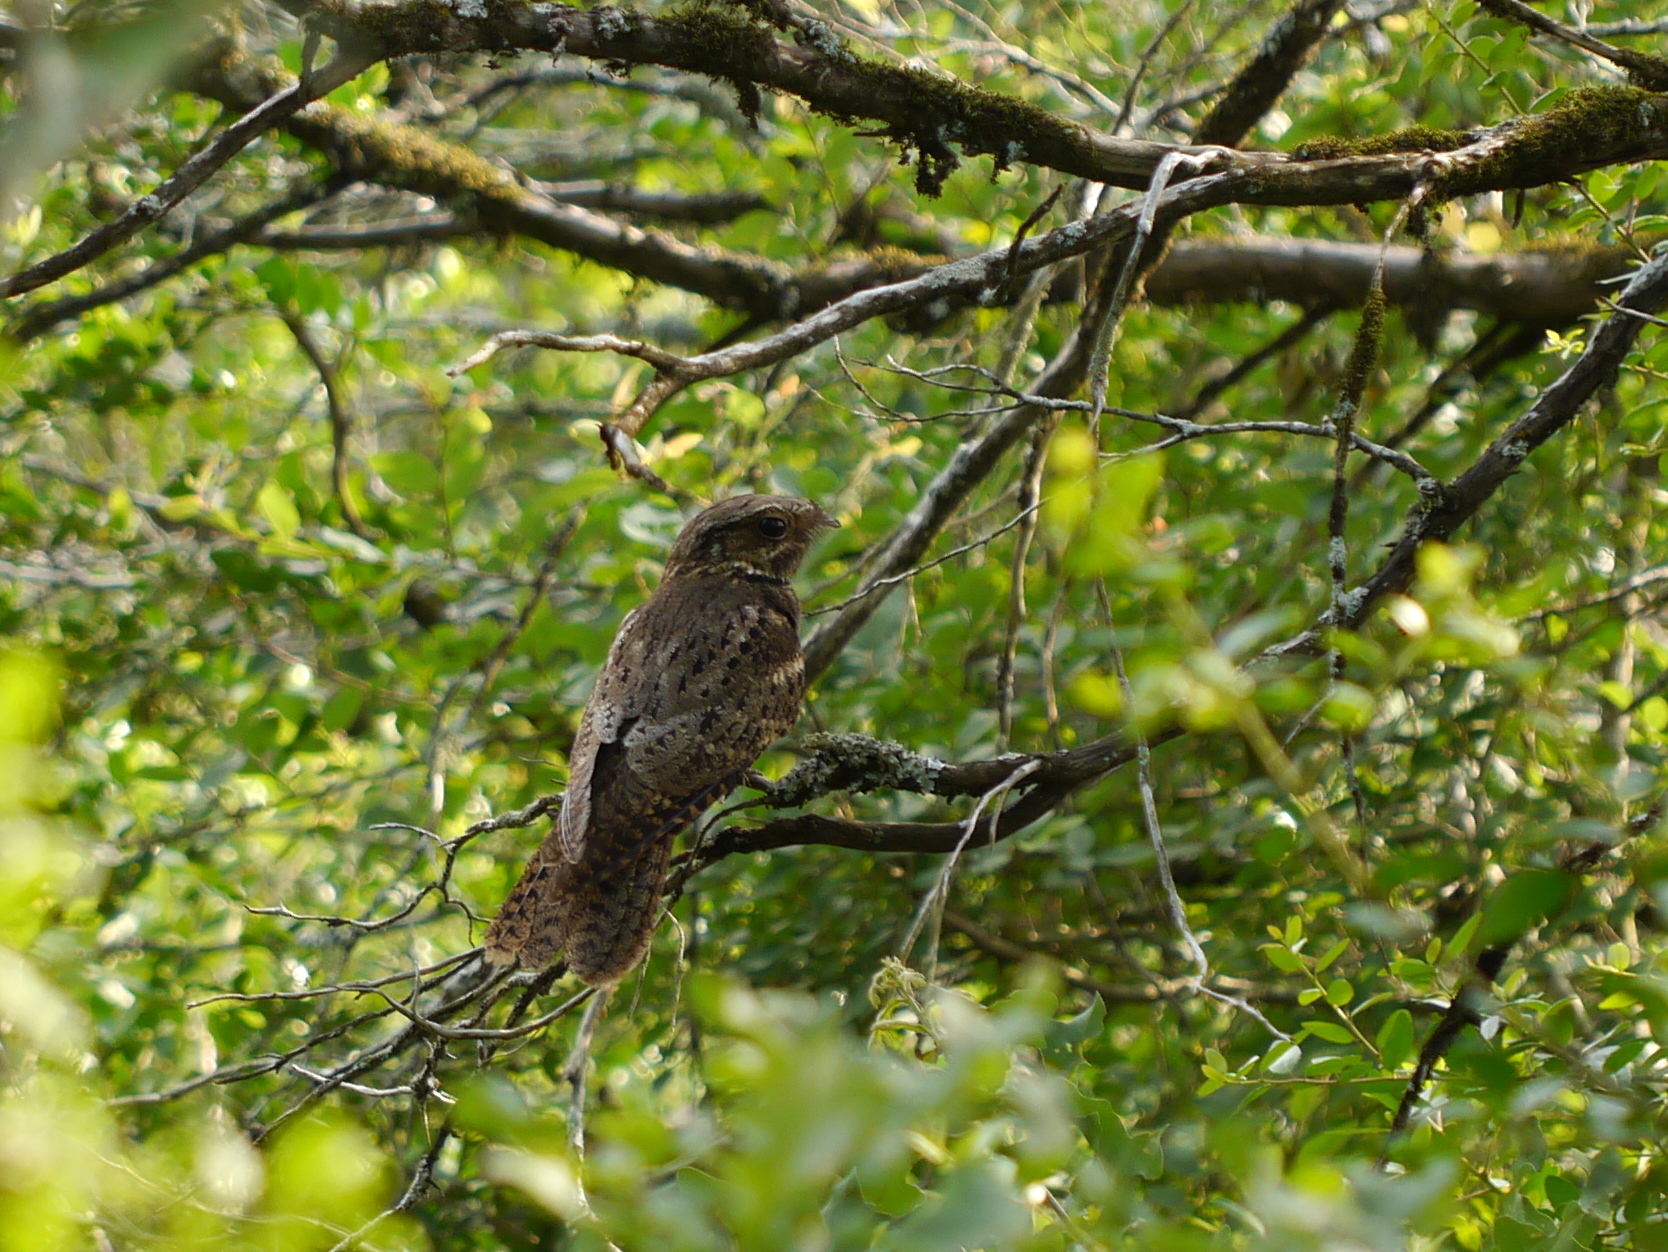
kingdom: Animalia
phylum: Chordata
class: Aves
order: Caprimulgiformes
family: Caprimulgidae
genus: Antrostomus
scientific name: Antrostomus carolinensis
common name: Chuck-will's-widow
